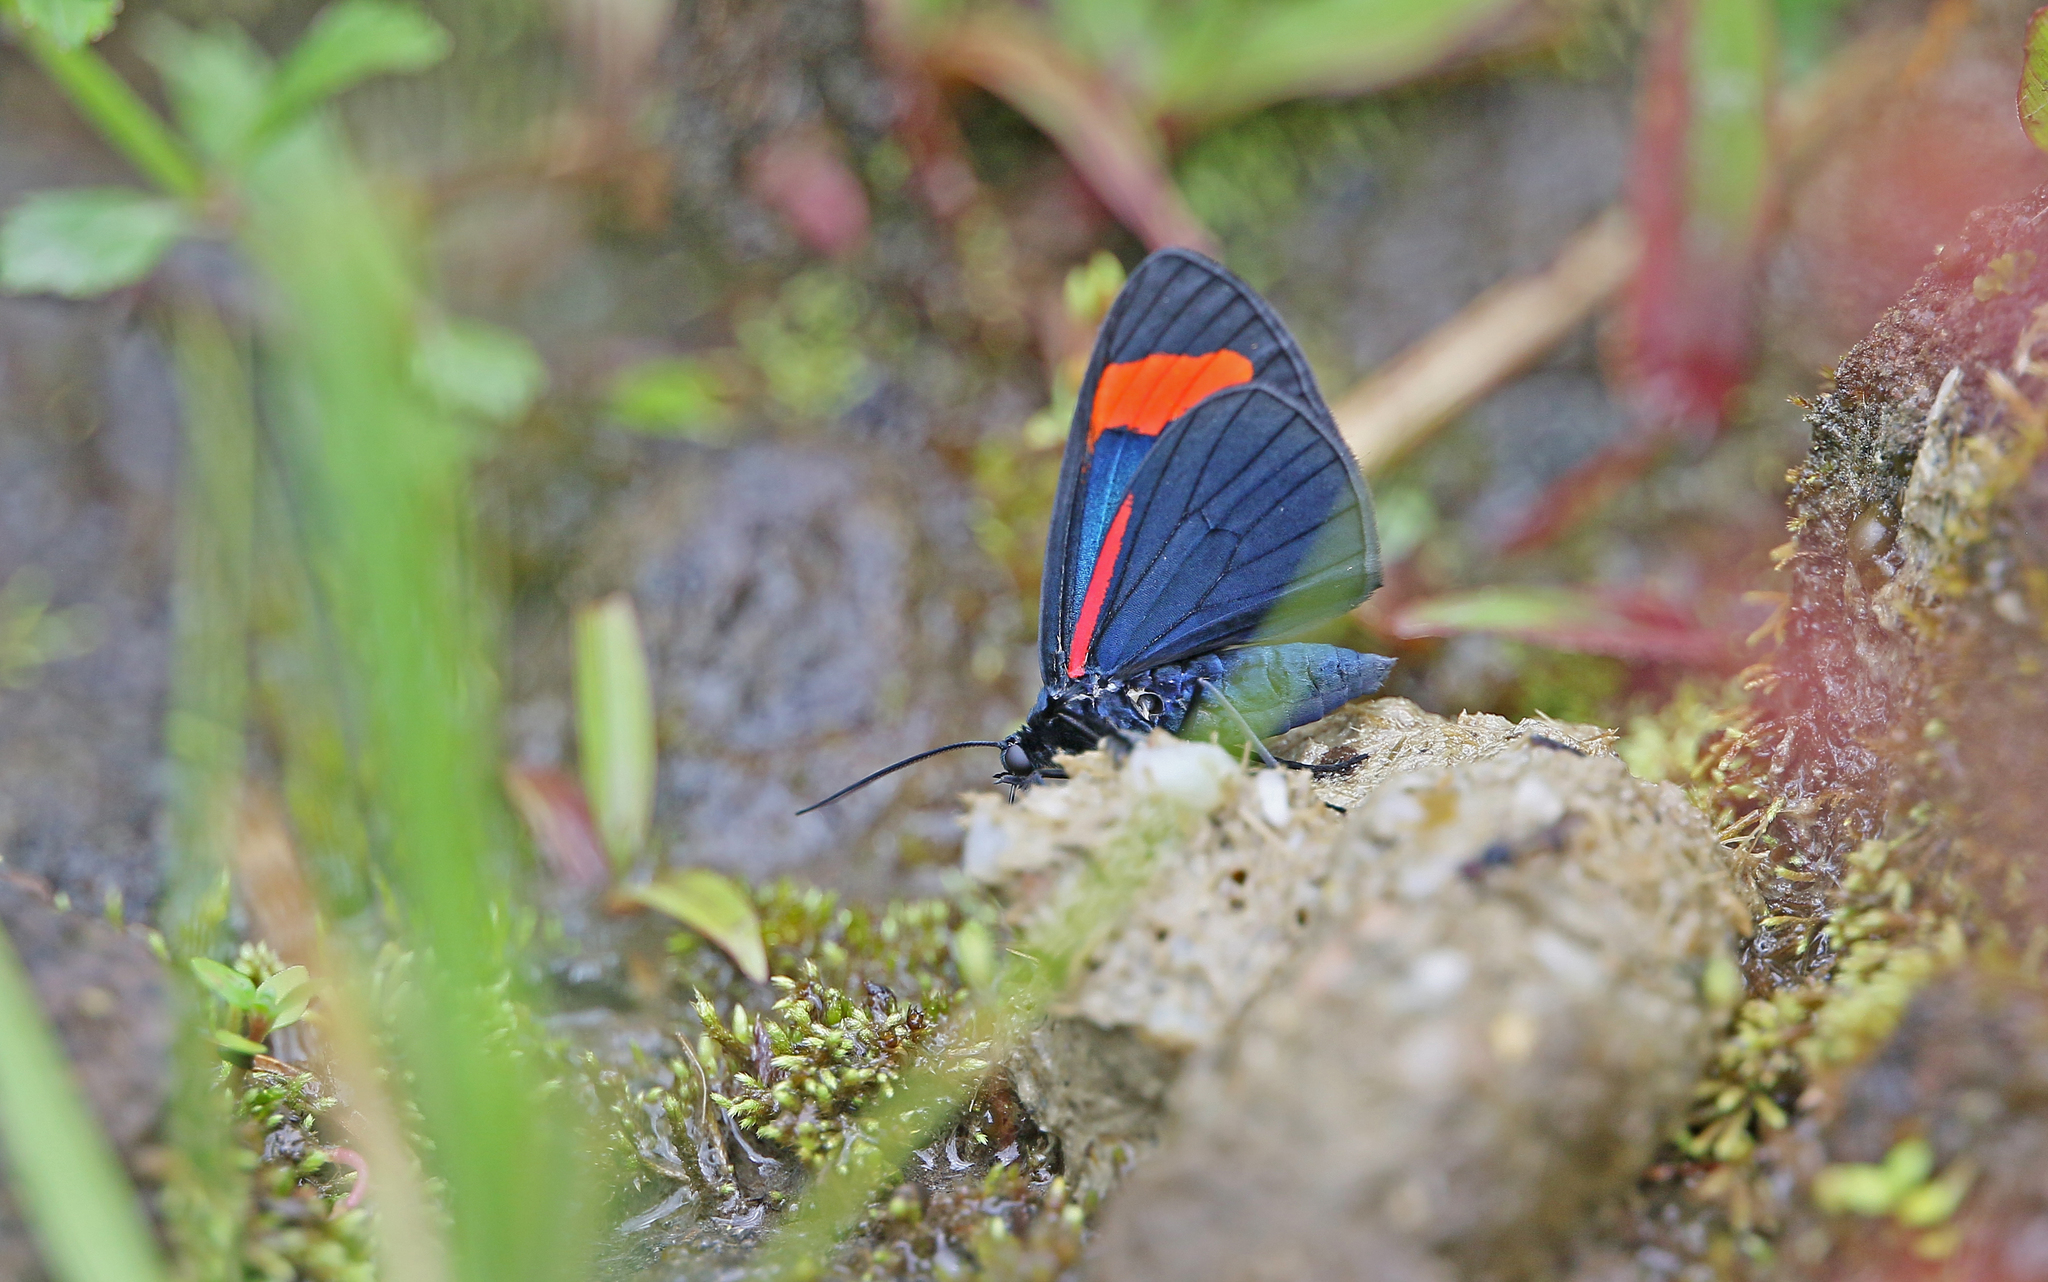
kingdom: Animalia
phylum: Arthropoda
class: Insecta
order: Lepidoptera
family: Geometridae
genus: Siosta
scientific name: Siosta bifasciata
